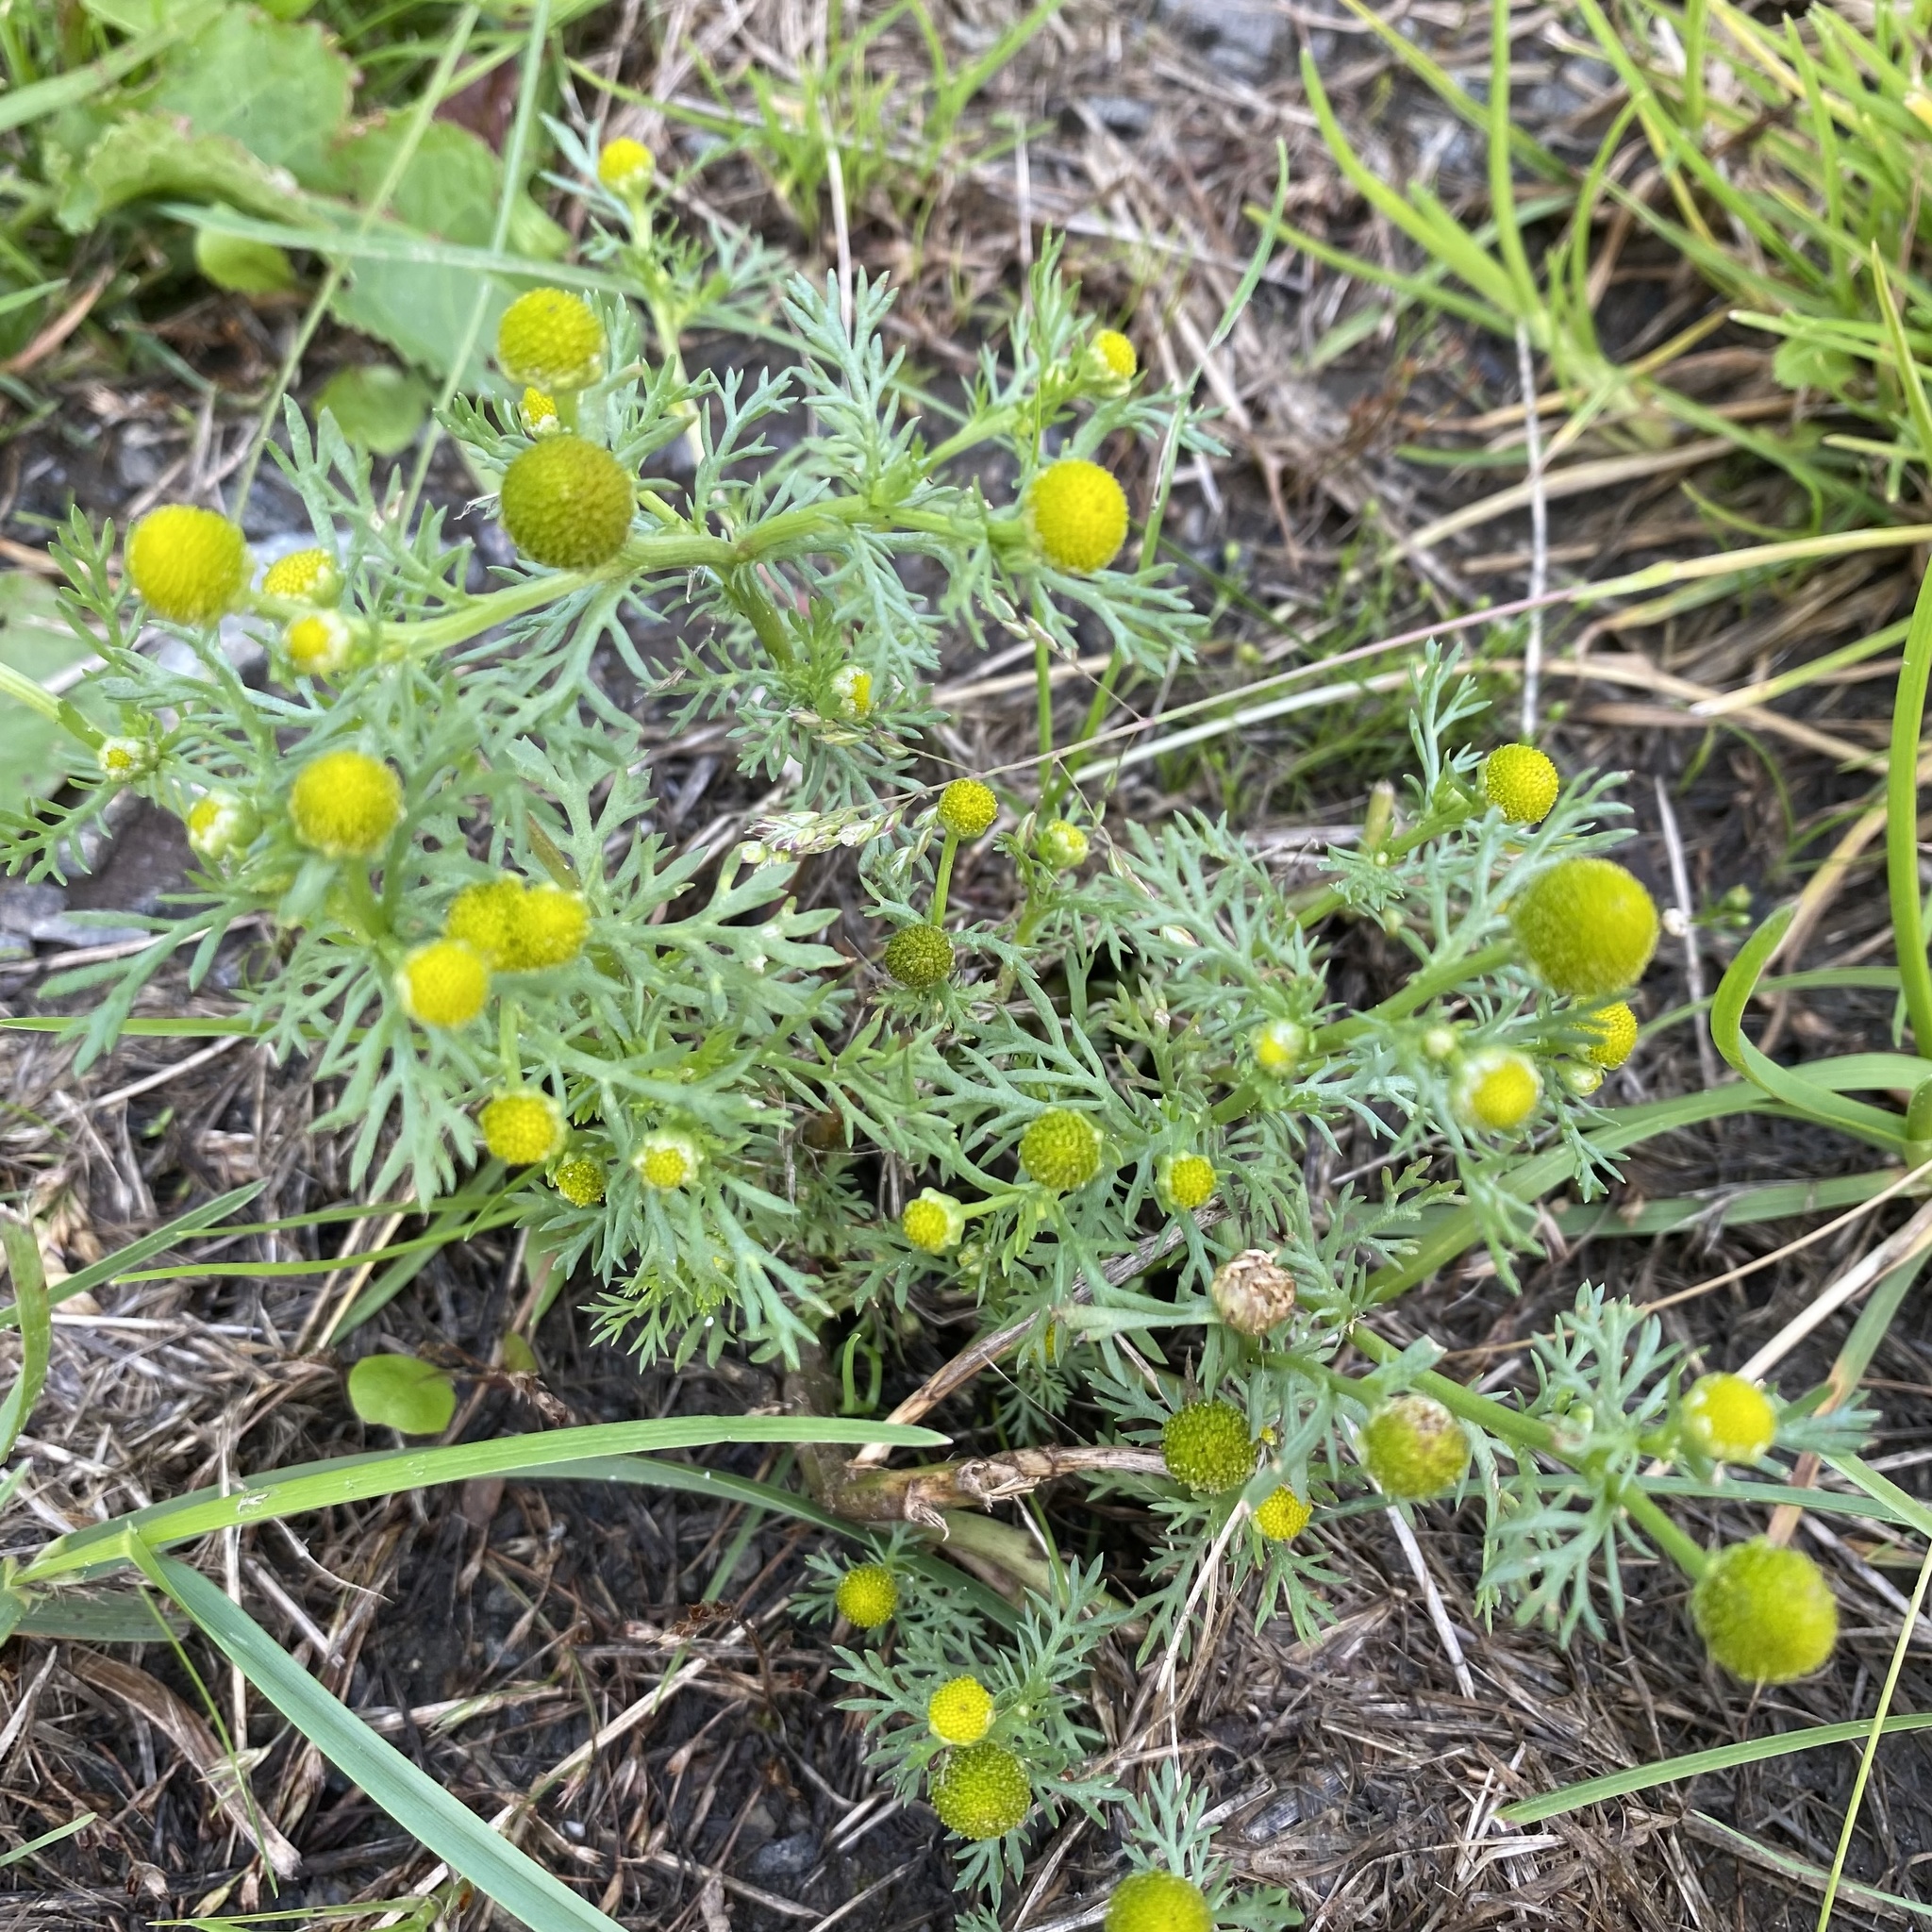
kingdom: Plantae
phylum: Tracheophyta
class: Magnoliopsida
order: Asterales
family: Asteraceae
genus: Matricaria
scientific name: Matricaria discoidea
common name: Disc mayweed
